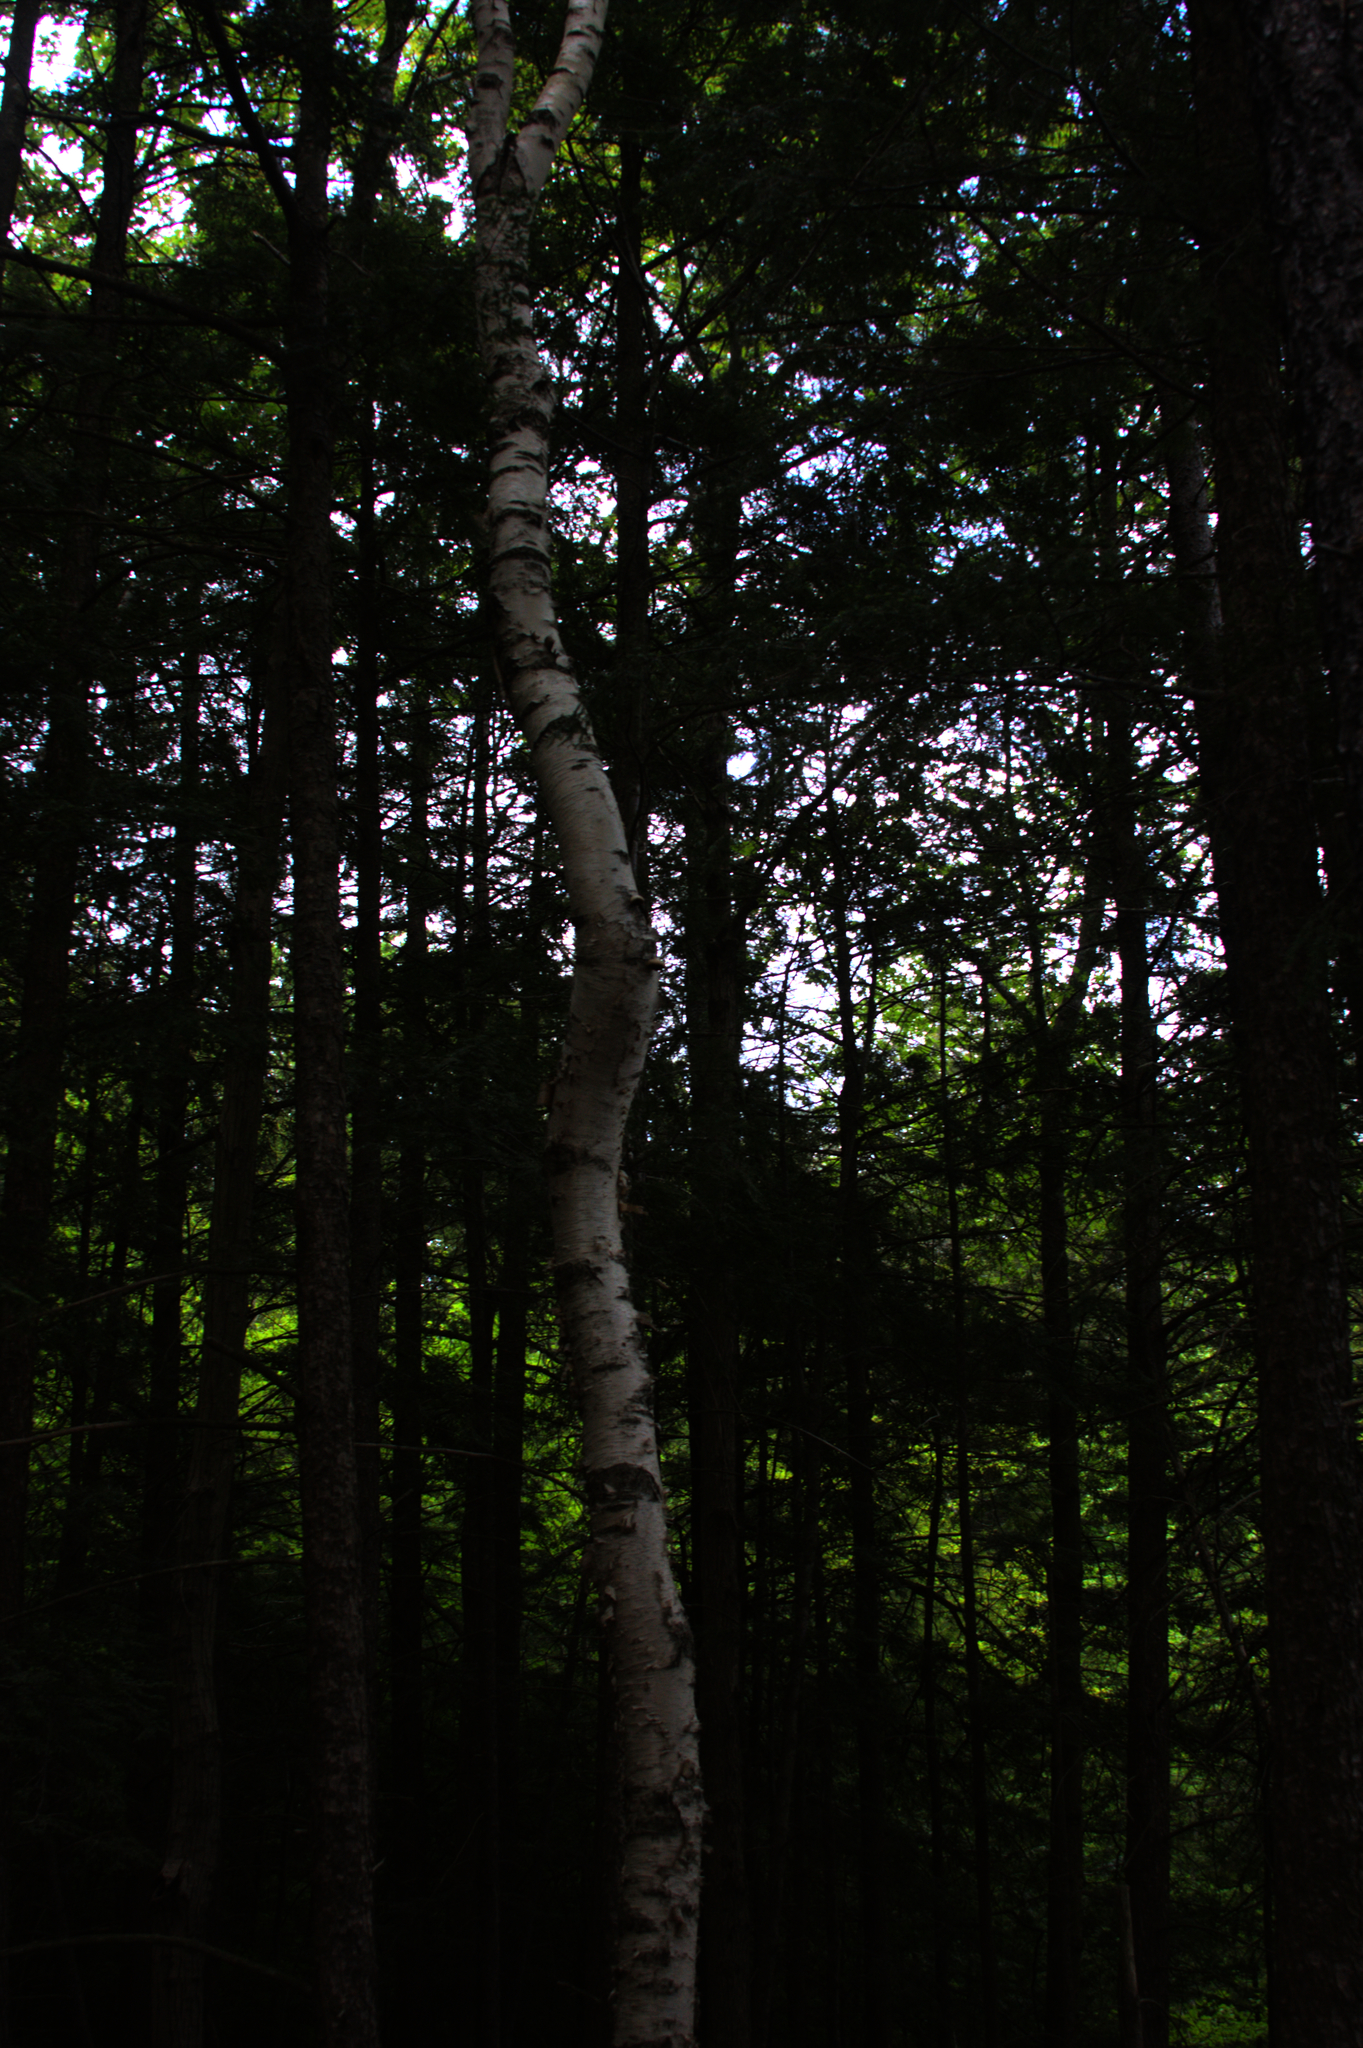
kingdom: Plantae
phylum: Tracheophyta
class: Magnoliopsida
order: Fagales
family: Betulaceae
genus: Betula
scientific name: Betula papyrifera
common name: Paper birch
